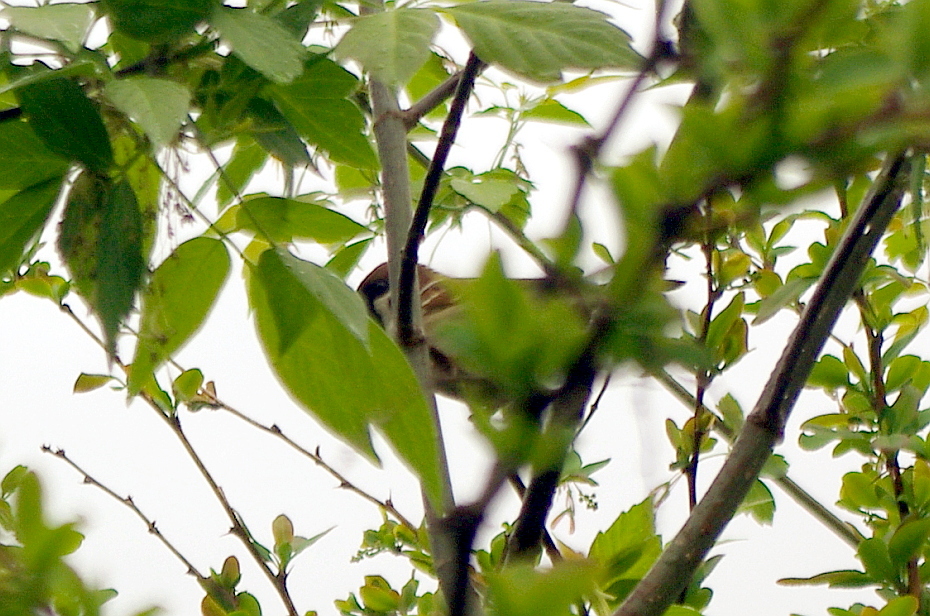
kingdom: Plantae
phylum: Tracheophyta
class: Magnoliopsida
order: Sapindales
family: Sapindaceae
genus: Acer
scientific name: Acer negundo
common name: Ashleaf maple
